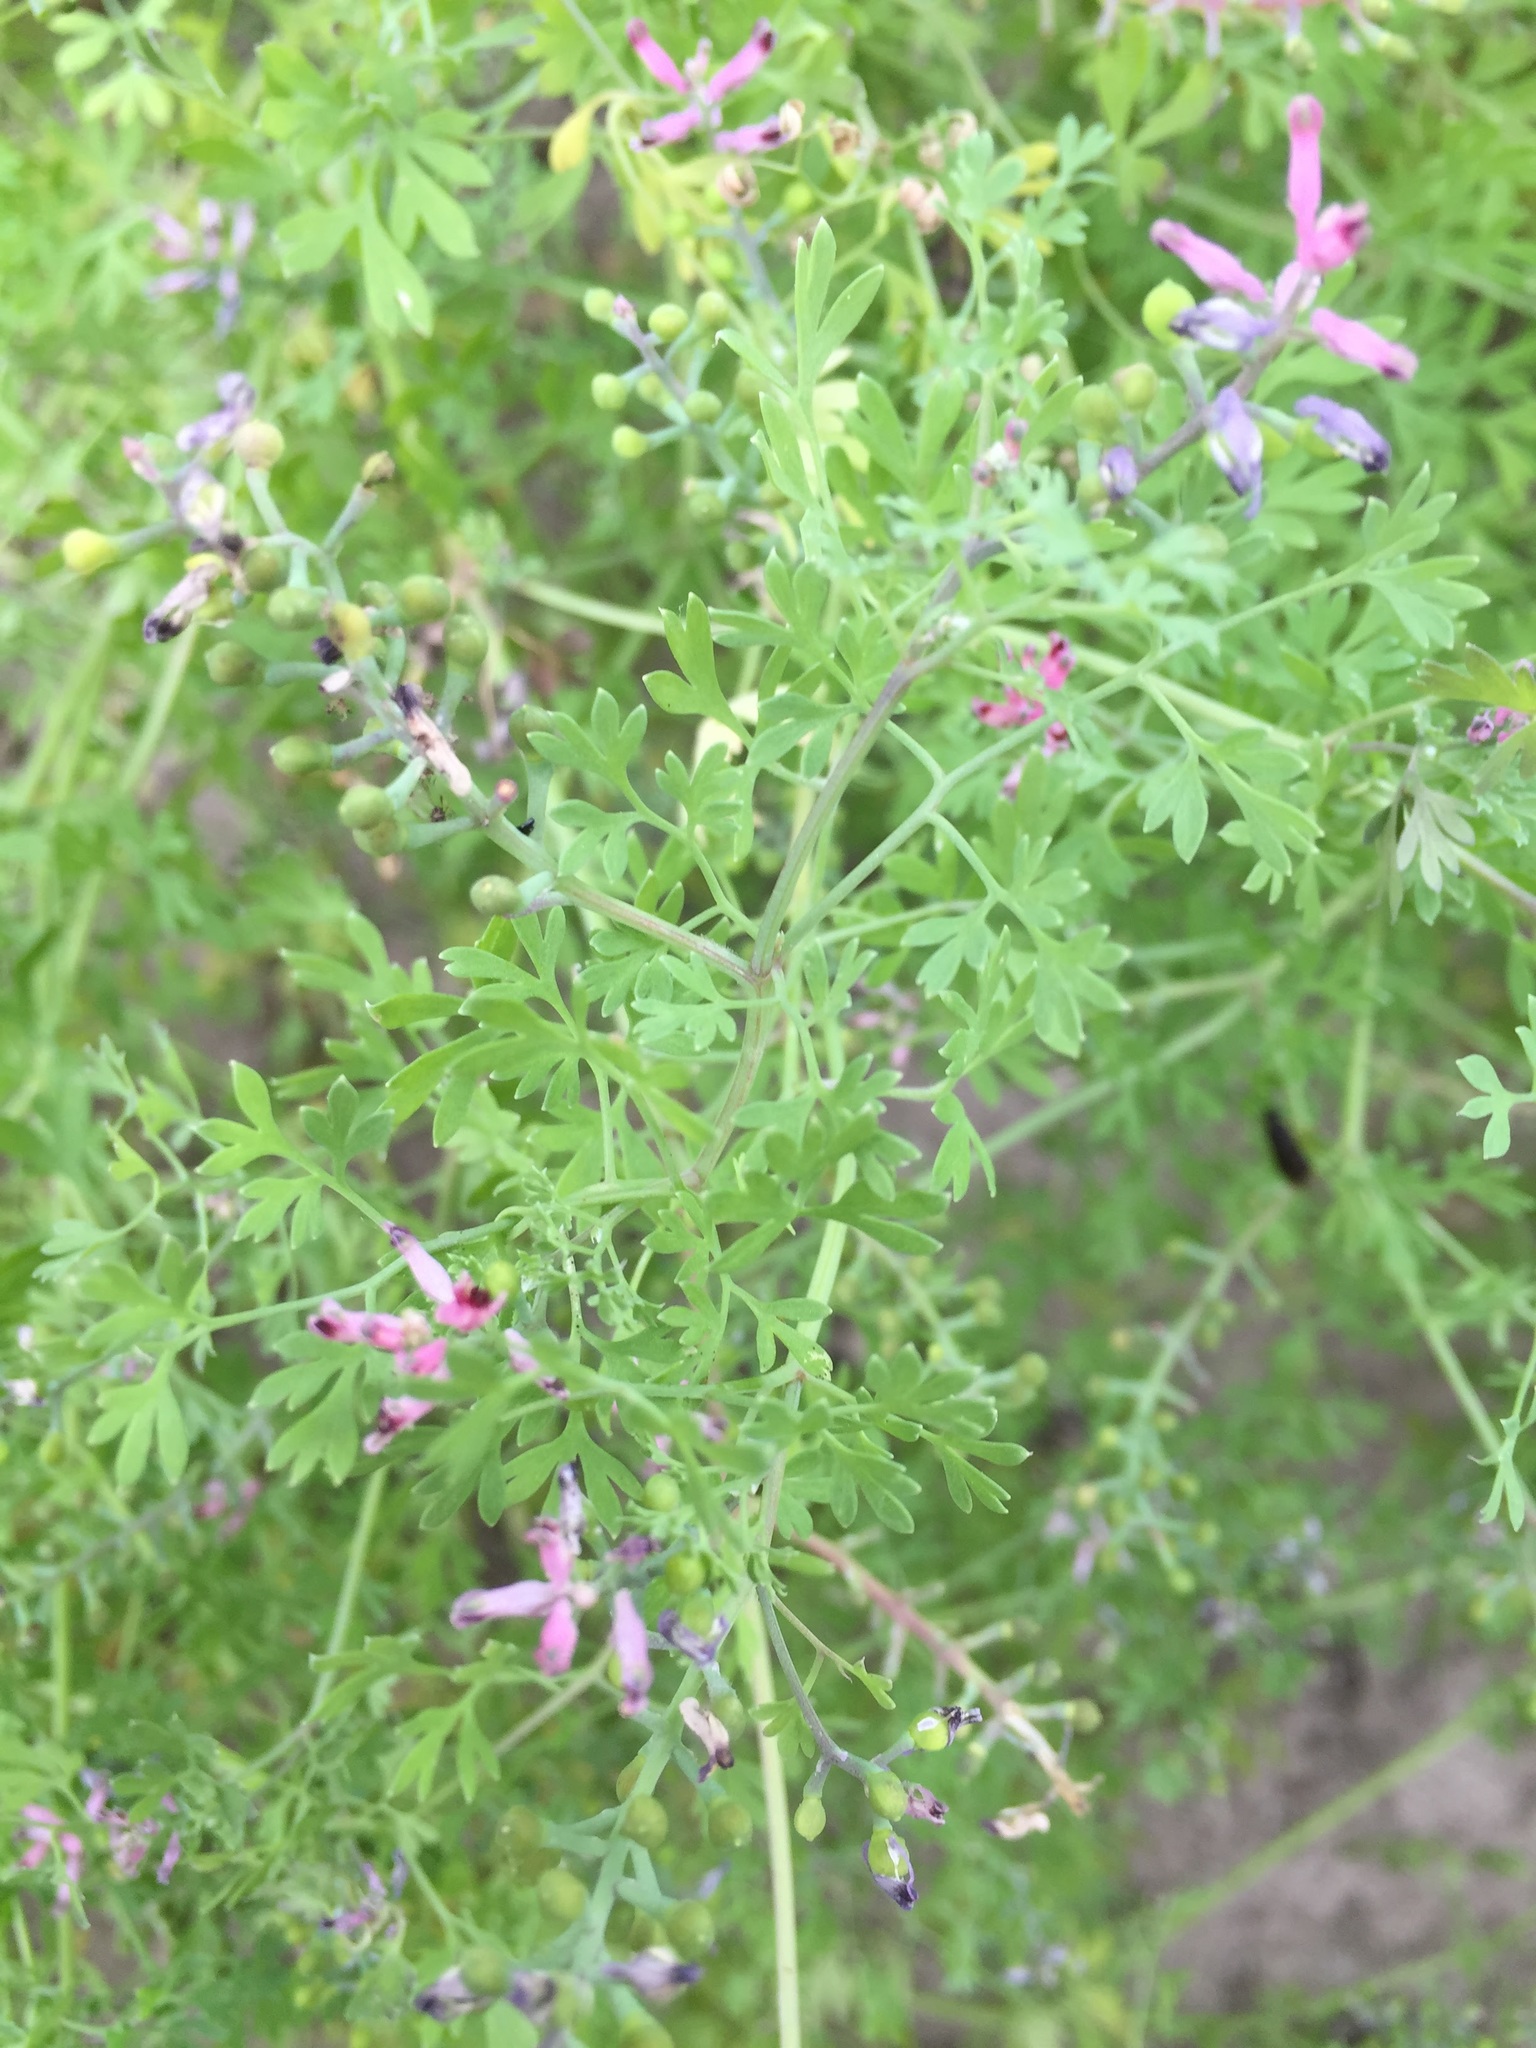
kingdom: Plantae
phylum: Tracheophyta
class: Magnoliopsida
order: Ranunculales
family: Papaveraceae
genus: Fumaria
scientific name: Fumaria parviflora
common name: Fine-leaved fumitory
